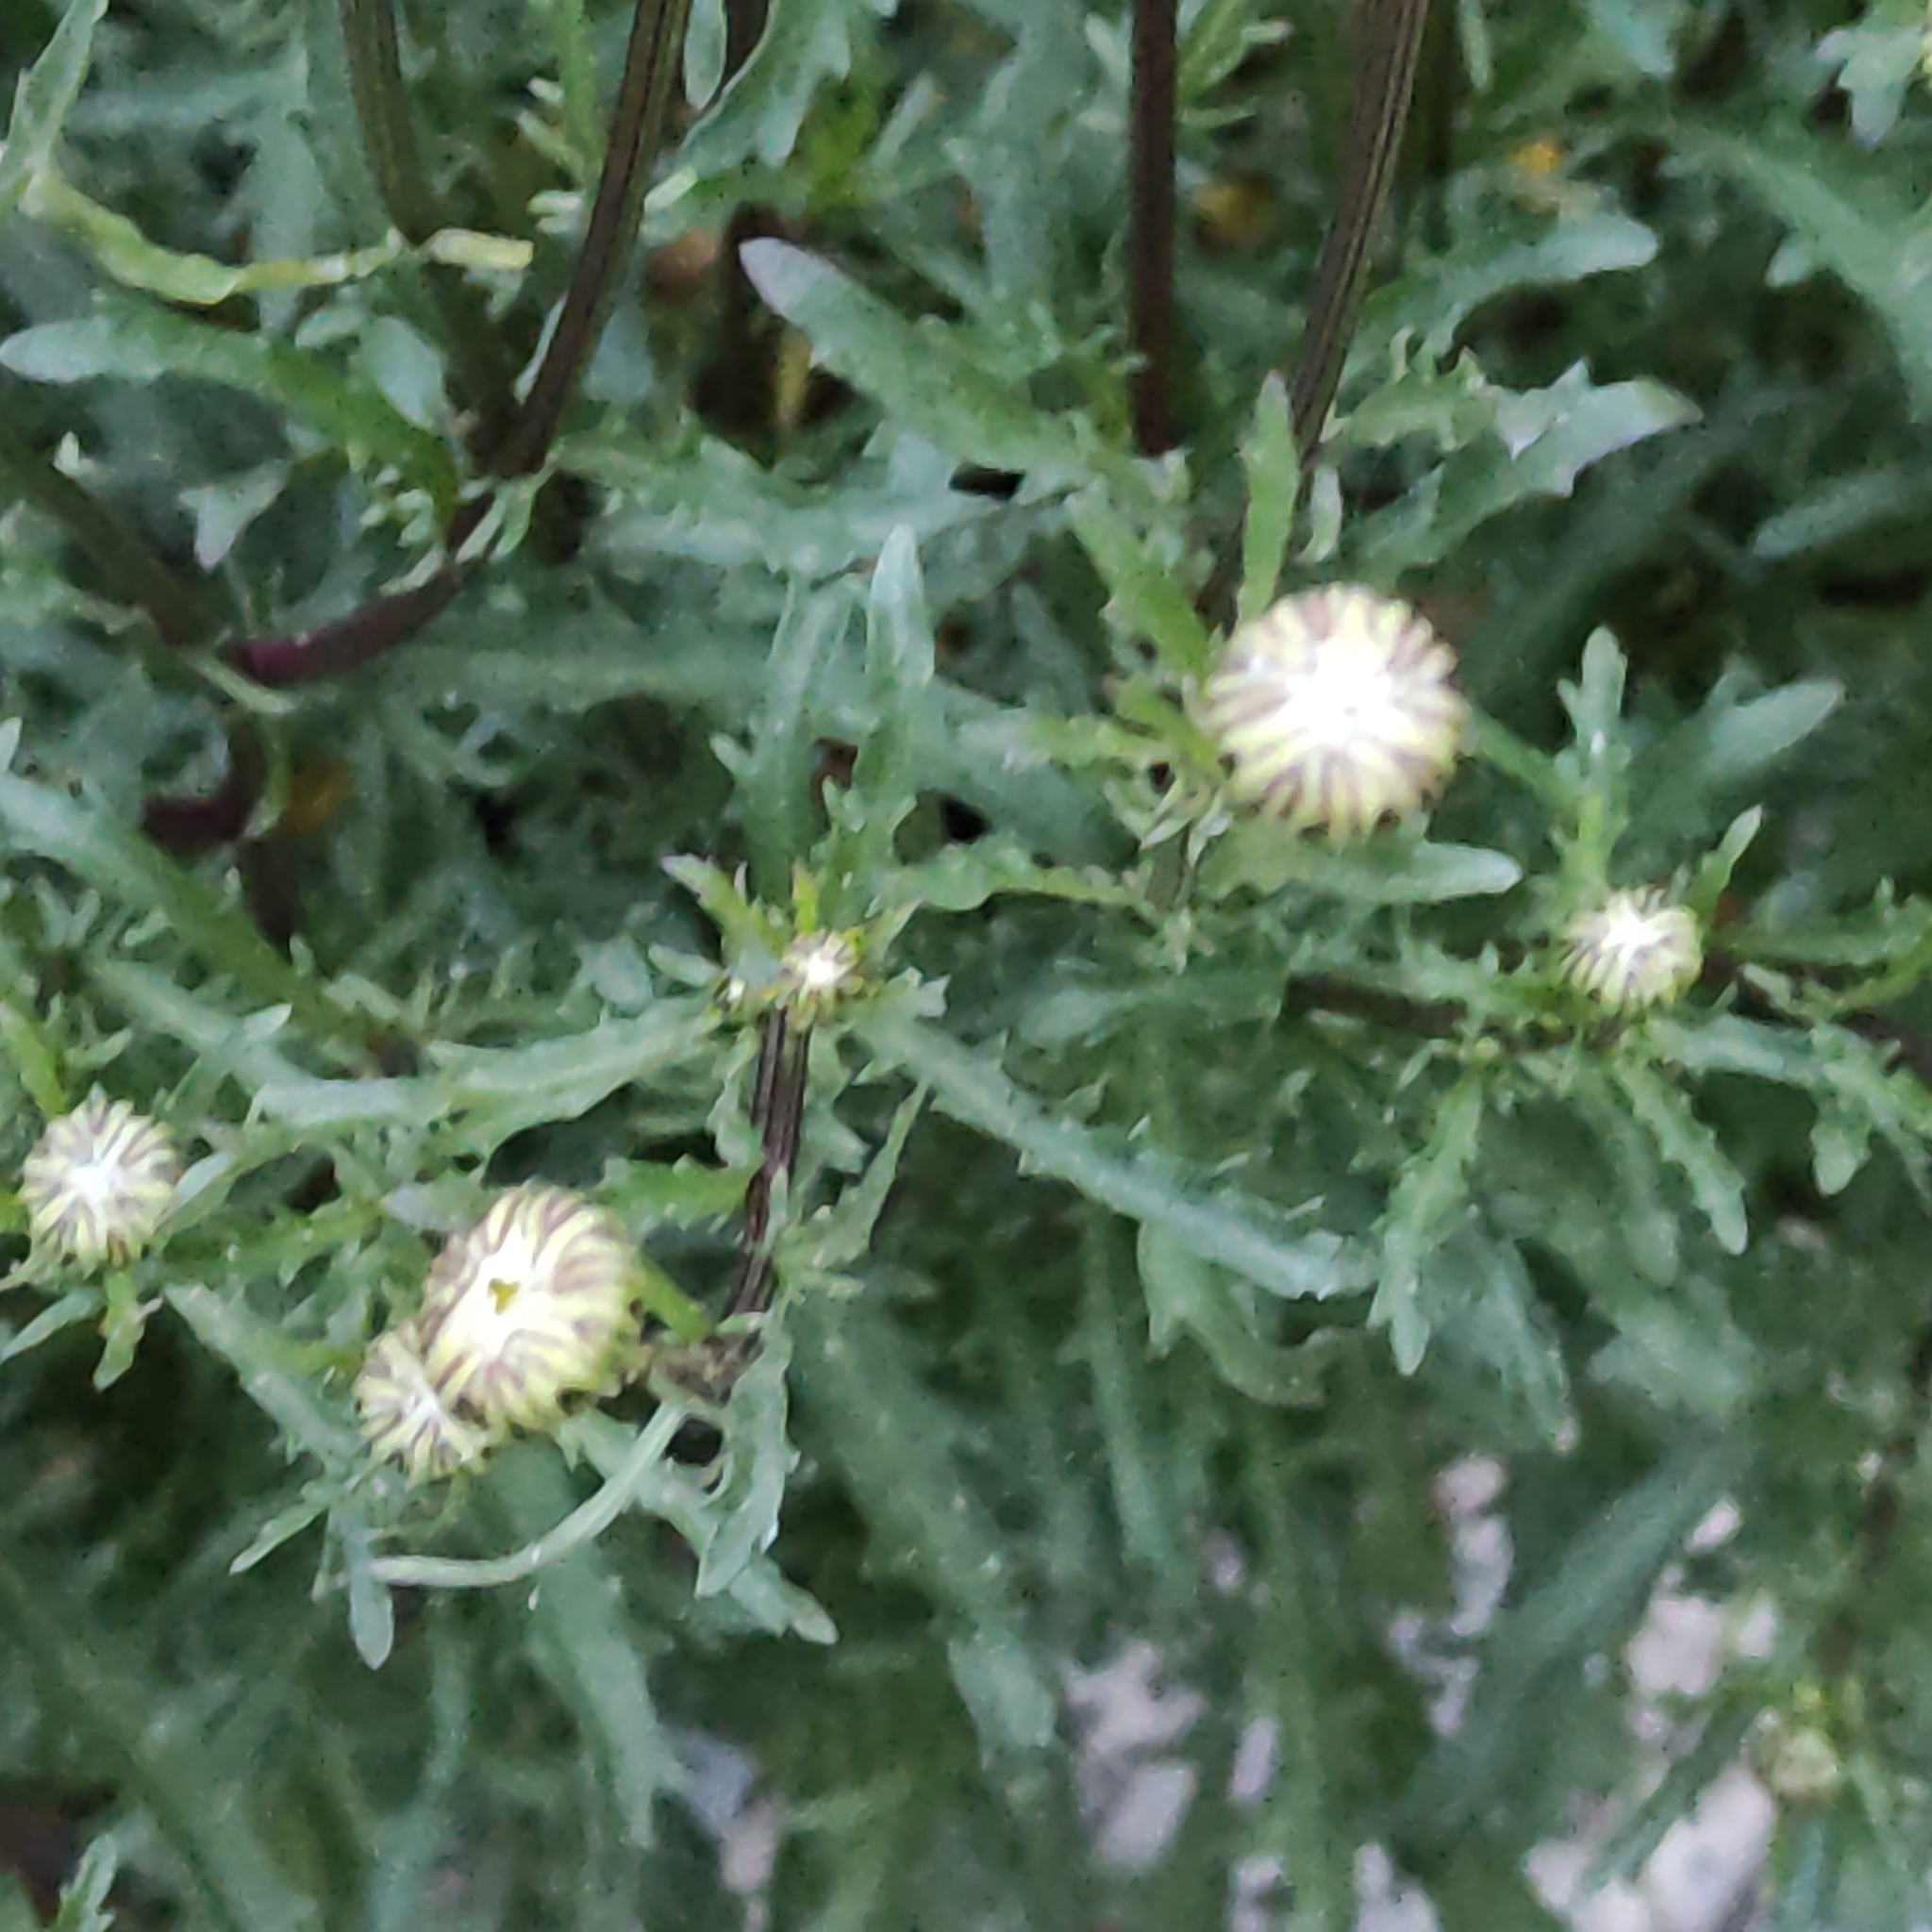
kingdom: Plantae
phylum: Tracheophyta
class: Magnoliopsida
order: Asterales
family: Asteraceae
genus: Leucanthemum
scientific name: Leucanthemum vulgare
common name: Oxeye daisy
